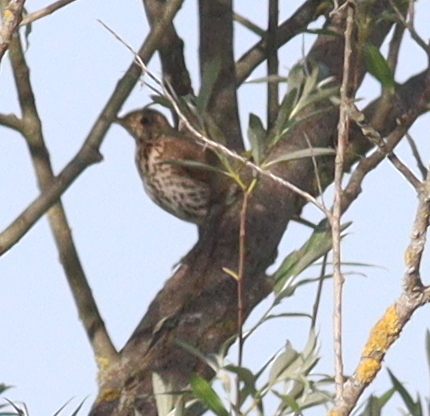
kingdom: Animalia
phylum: Chordata
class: Aves
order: Passeriformes
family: Turdidae
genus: Turdus
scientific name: Turdus philomelos
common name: Song thrush
